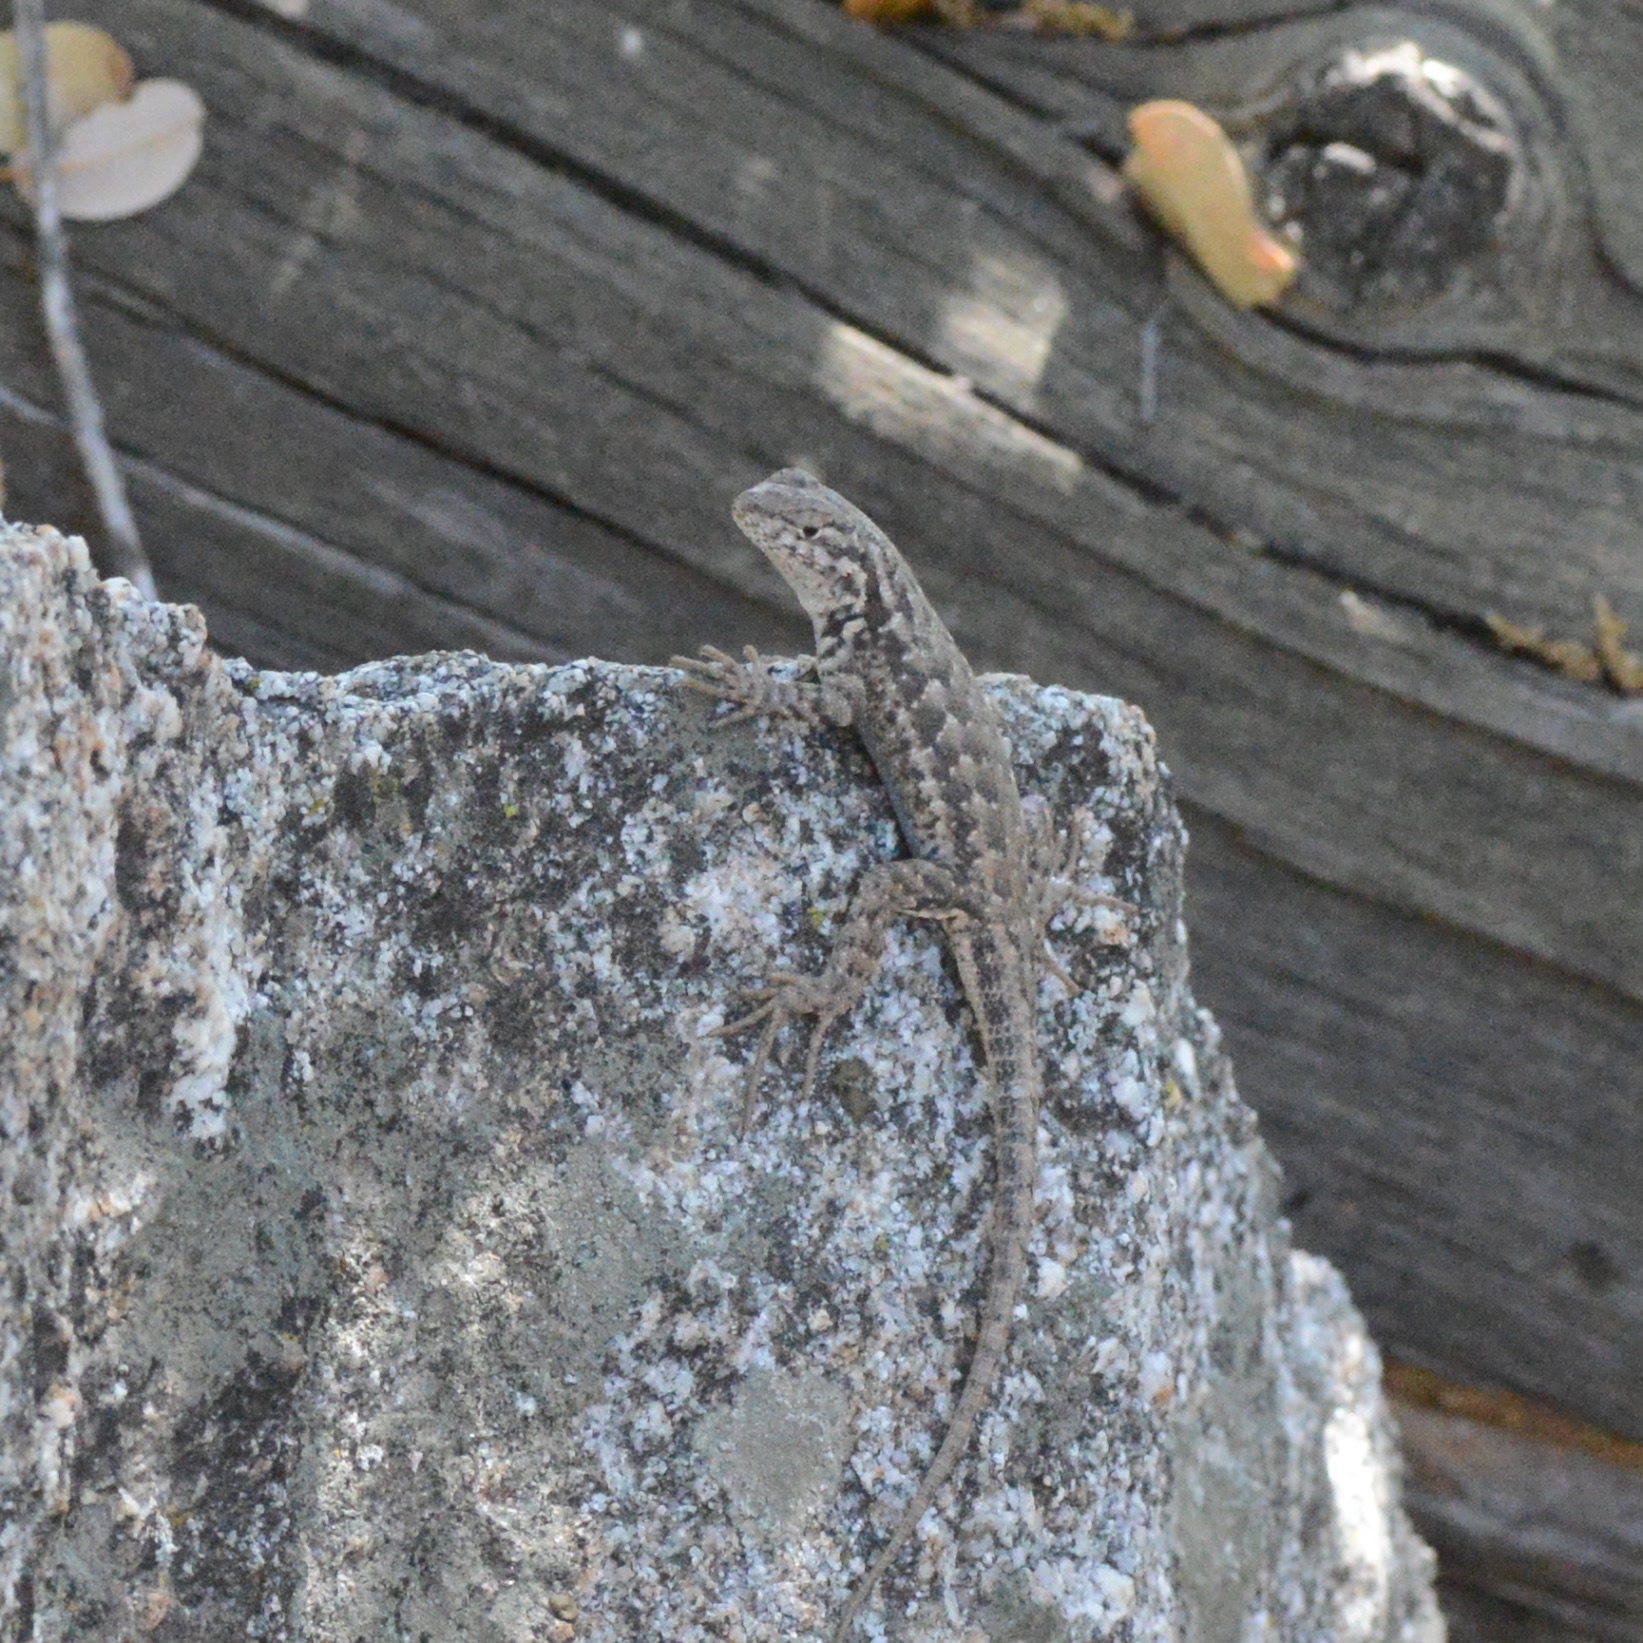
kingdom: Animalia
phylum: Chordata
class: Squamata
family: Phrynosomatidae
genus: Sceloporus
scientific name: Sceloporus graciosus
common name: Sagebrush lizard
